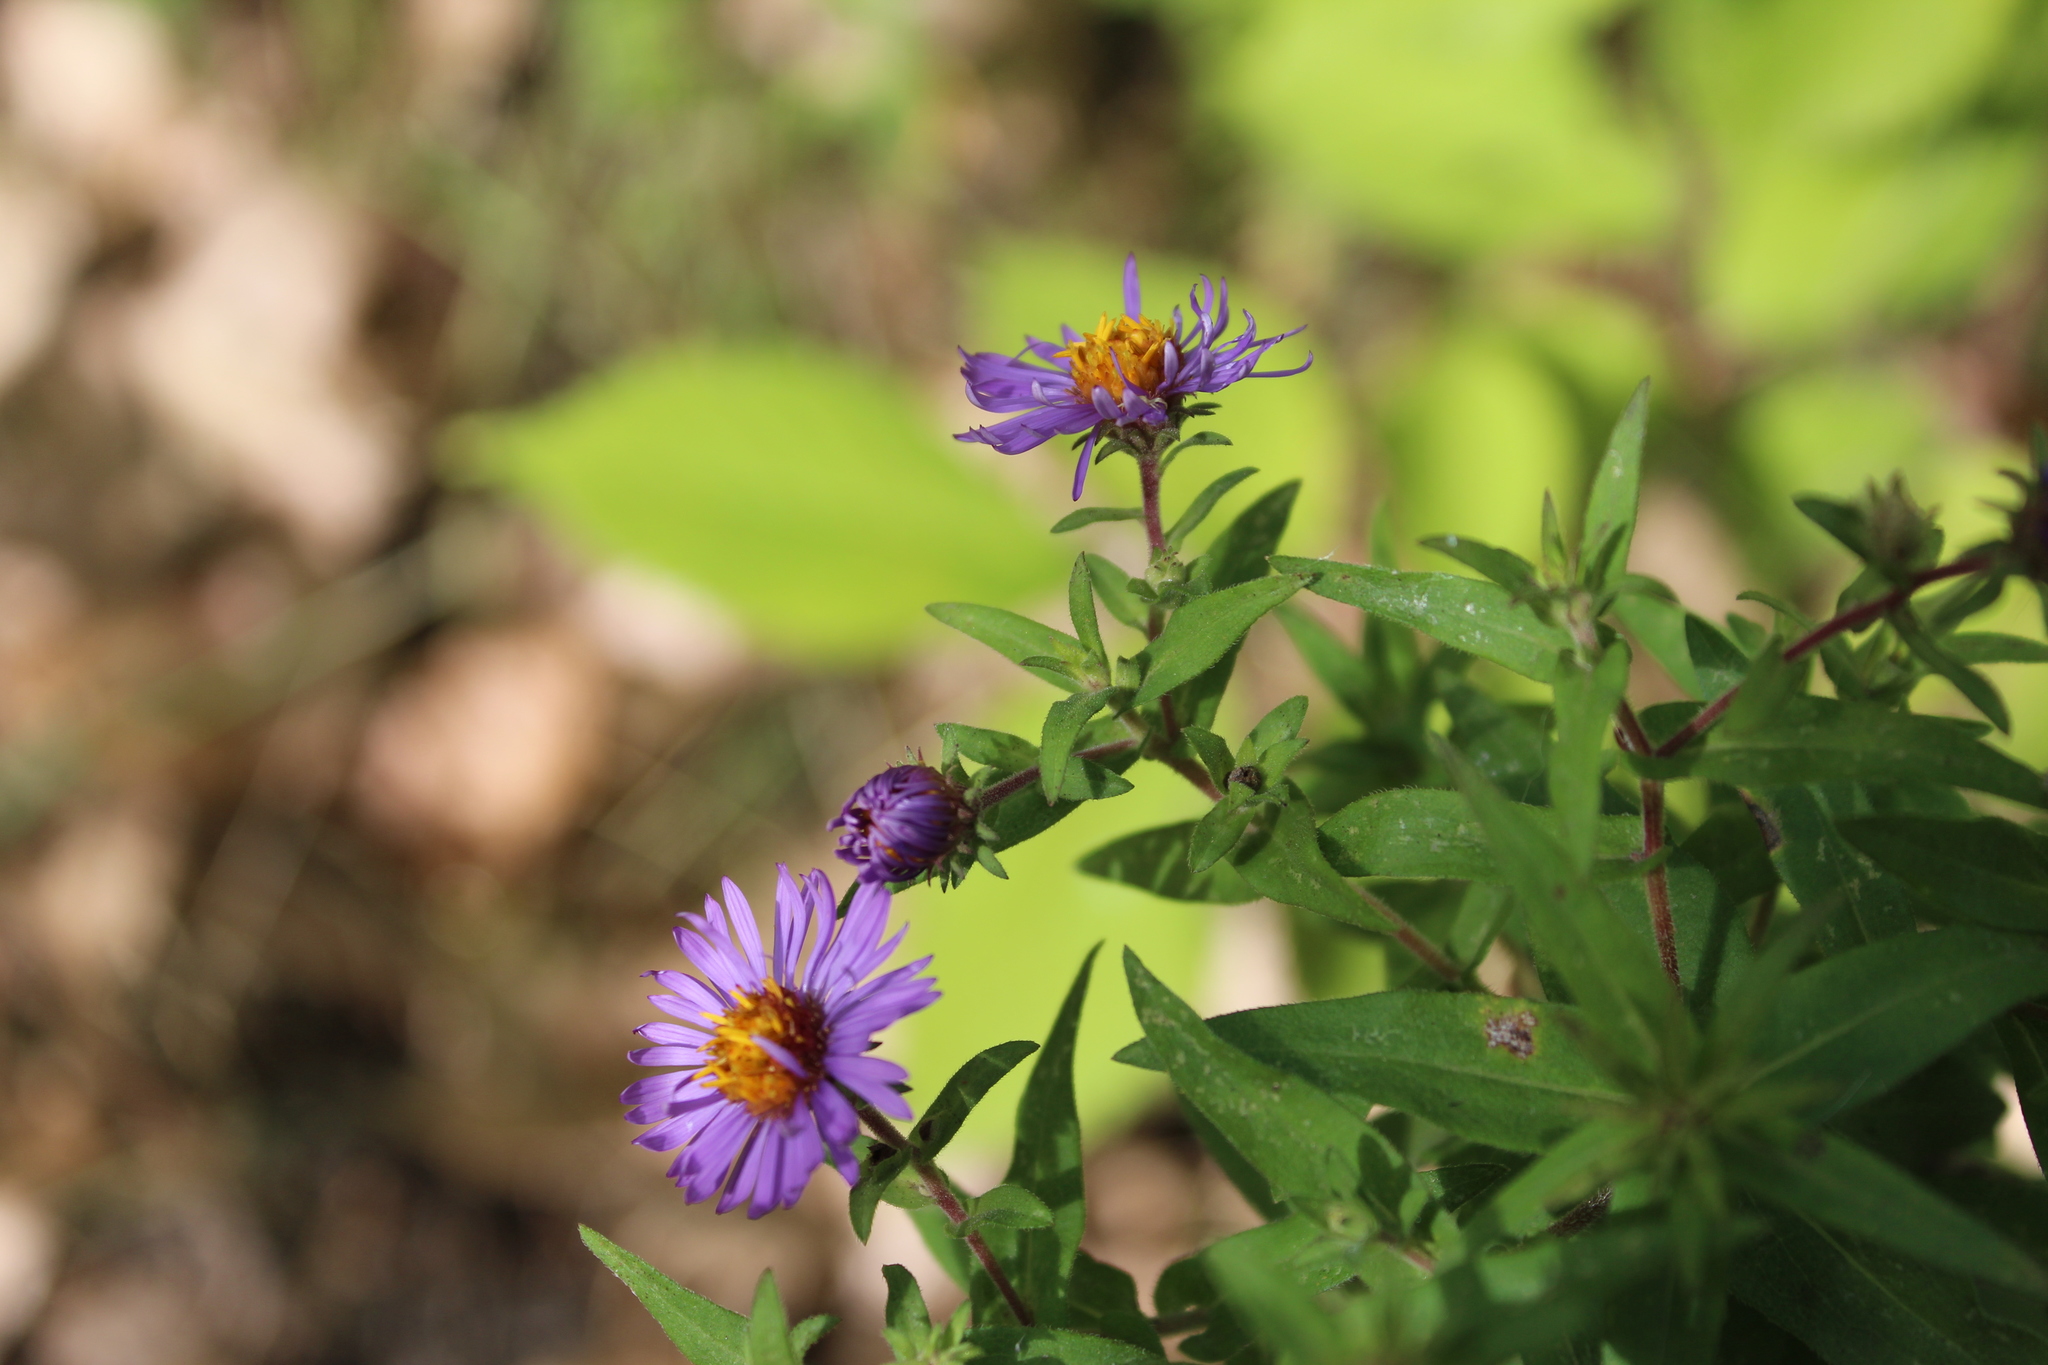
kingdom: Plantae
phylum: Tracheophyta
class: Magnoliopsida
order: Asterales
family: Asteraceae
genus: Symphyotrichum
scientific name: Symphyotrichum novae-angliae
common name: Michaelmas daisy
